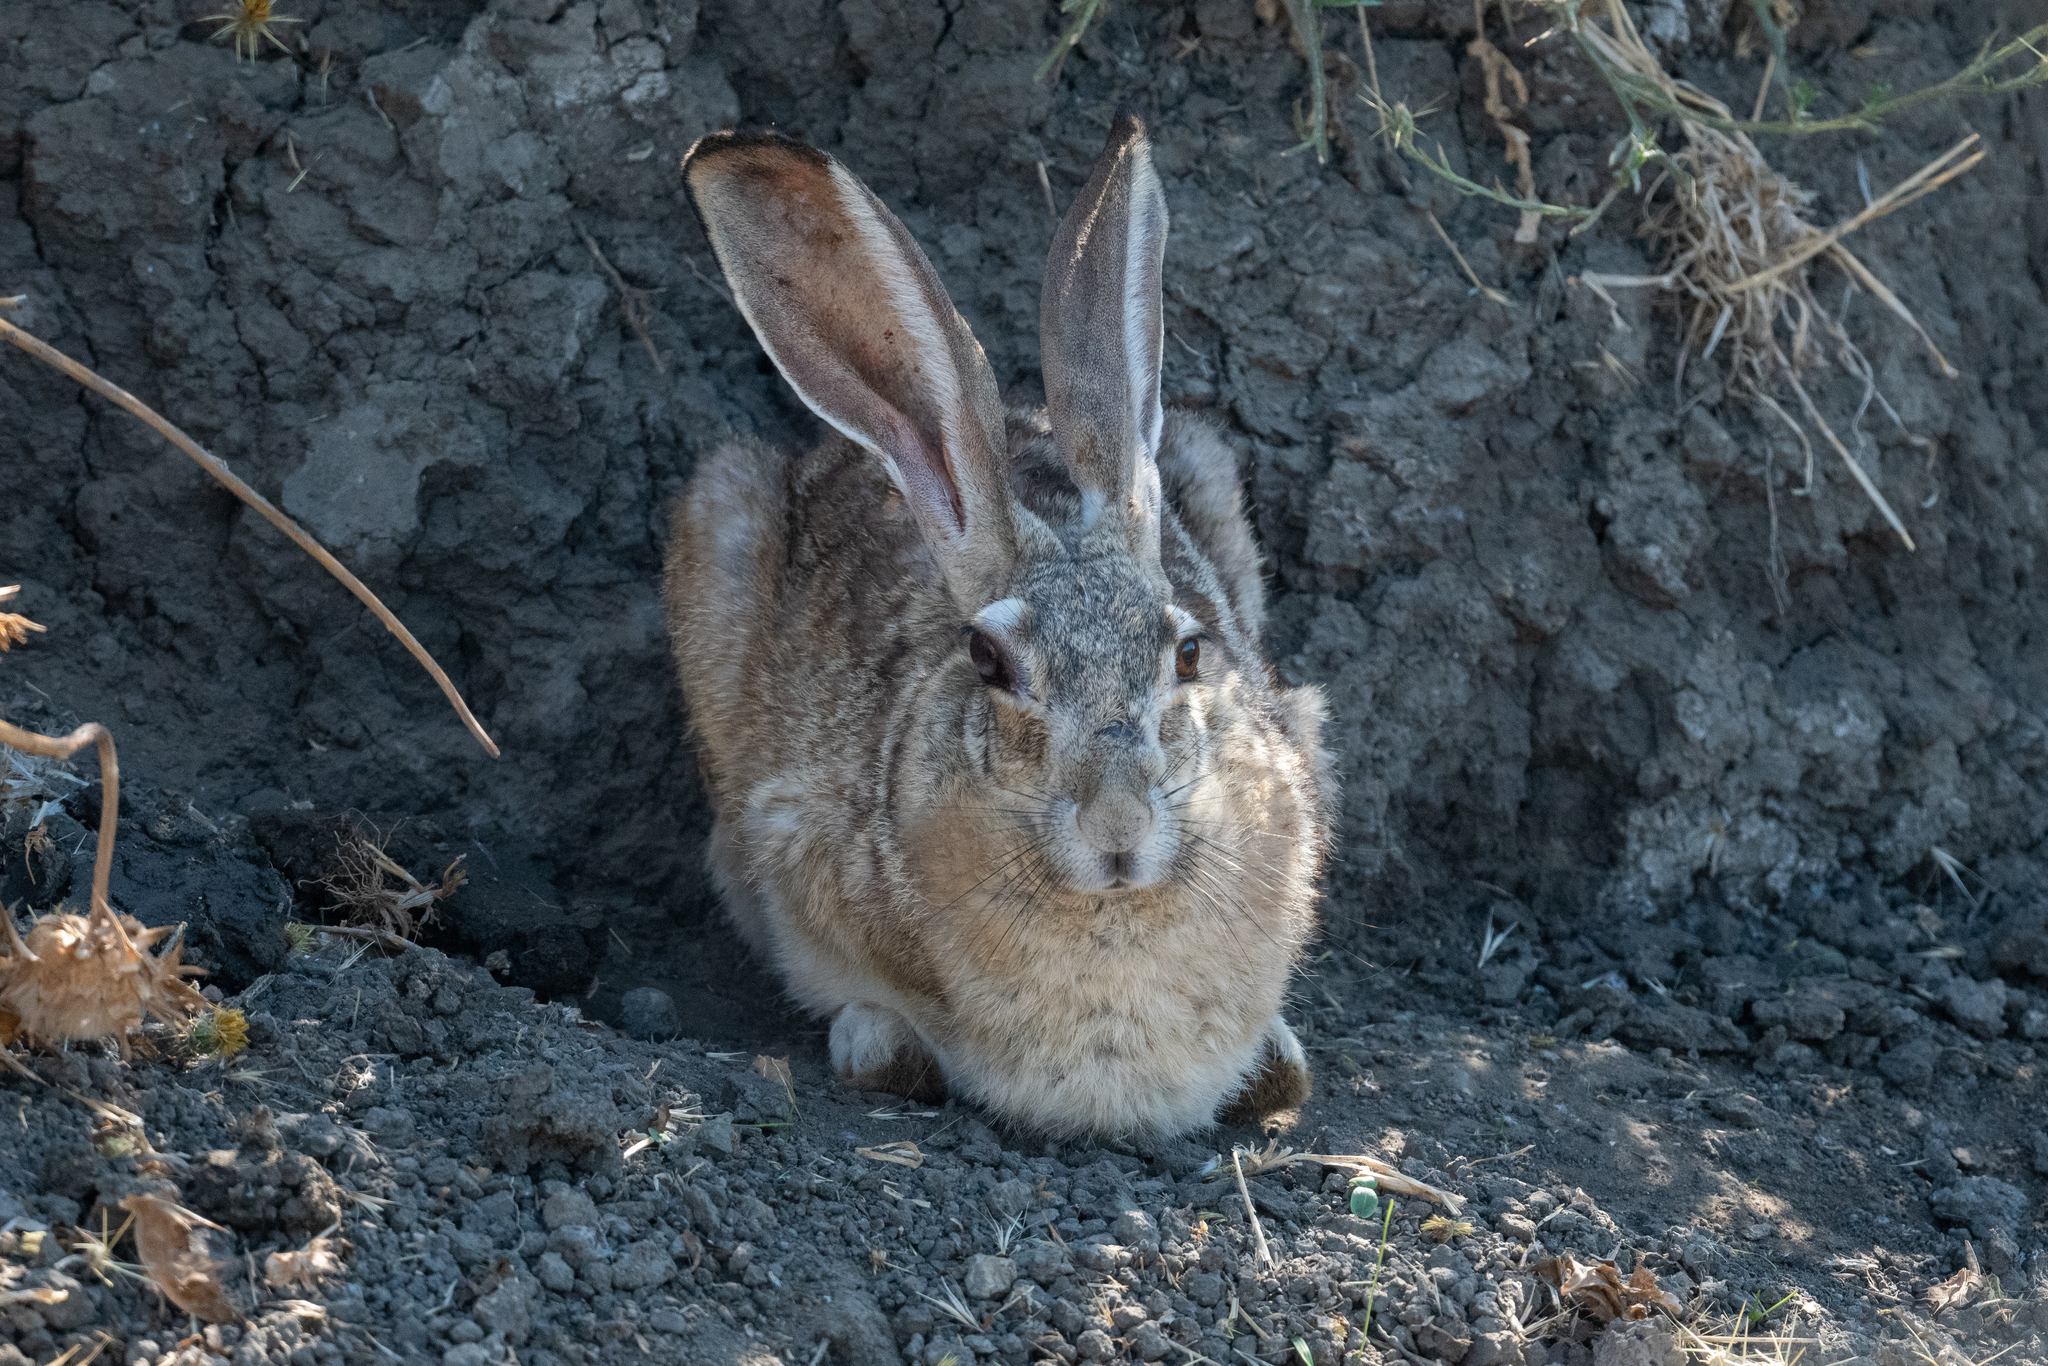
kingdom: Animalia
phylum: Chordata
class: Mammalia
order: Lagomorpha
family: Leporidae
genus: Lepus
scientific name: Lepus californicus
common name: Black-tailed jackrabbit
